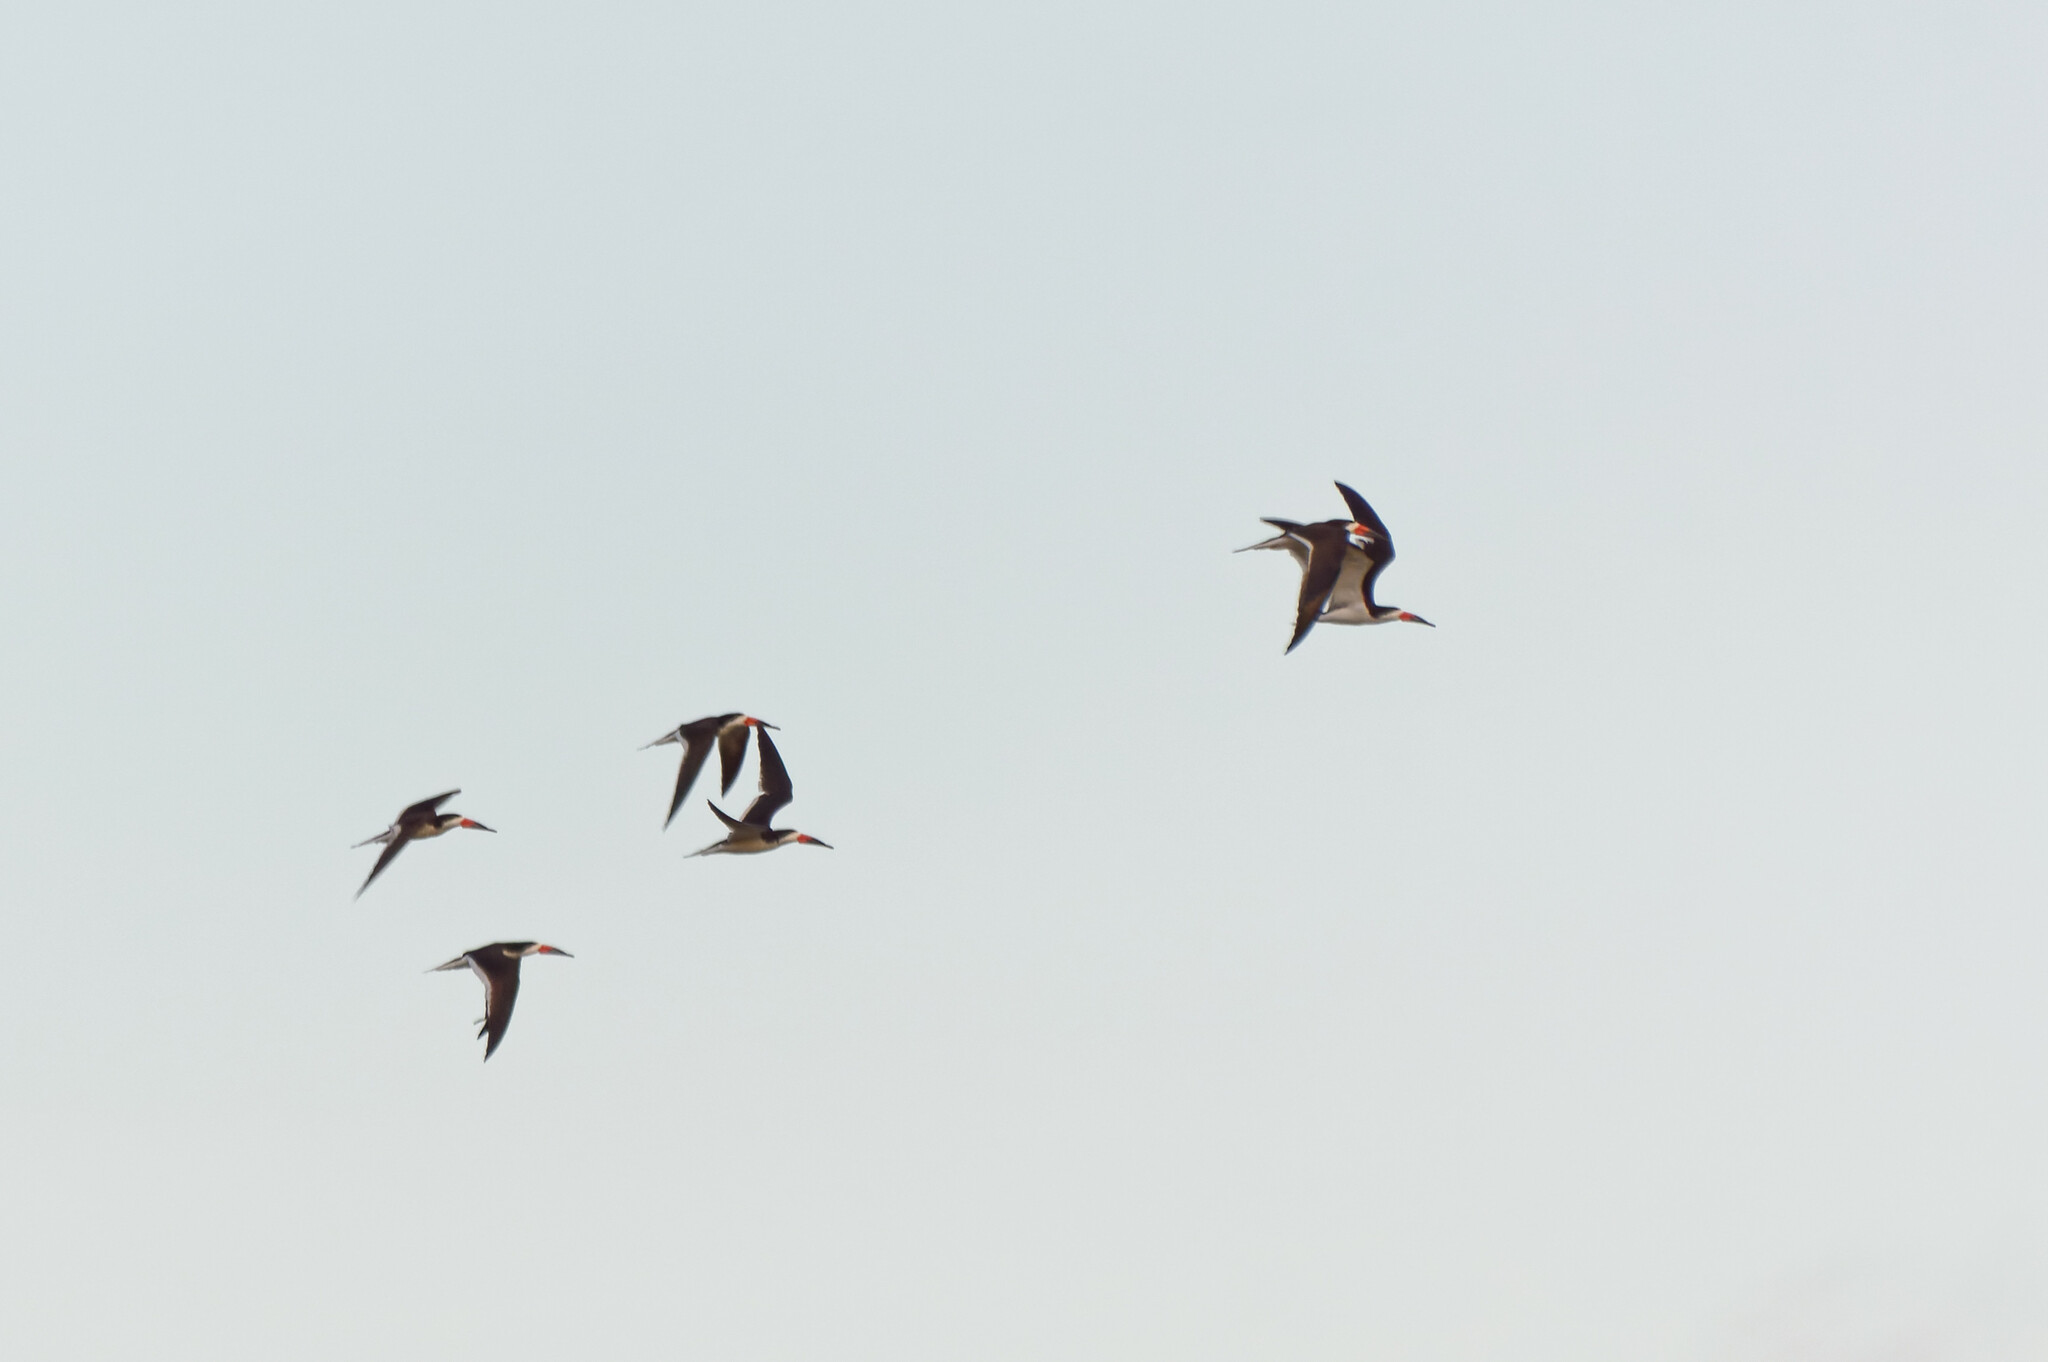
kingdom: Animalia
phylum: Chordata
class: Aves
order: Charadriiformes
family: Laridae
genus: Rynchops
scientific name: Rynchops niger
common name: Black skimmer
